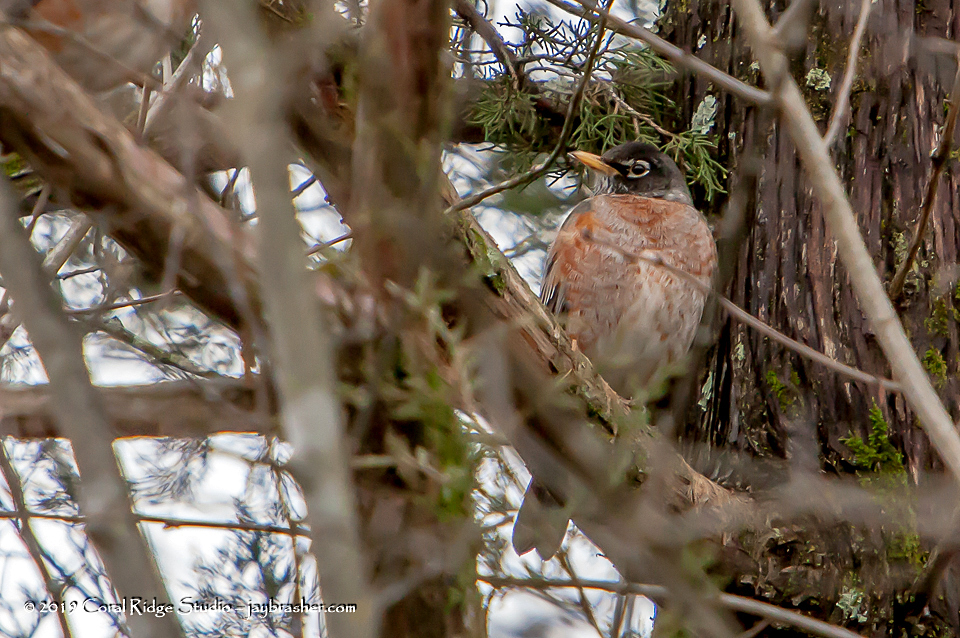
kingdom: Animalia
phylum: Chordata
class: Aves
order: Passeriformes
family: Turdidae
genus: Turdus
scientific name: Turdus migratorius
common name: American robin
